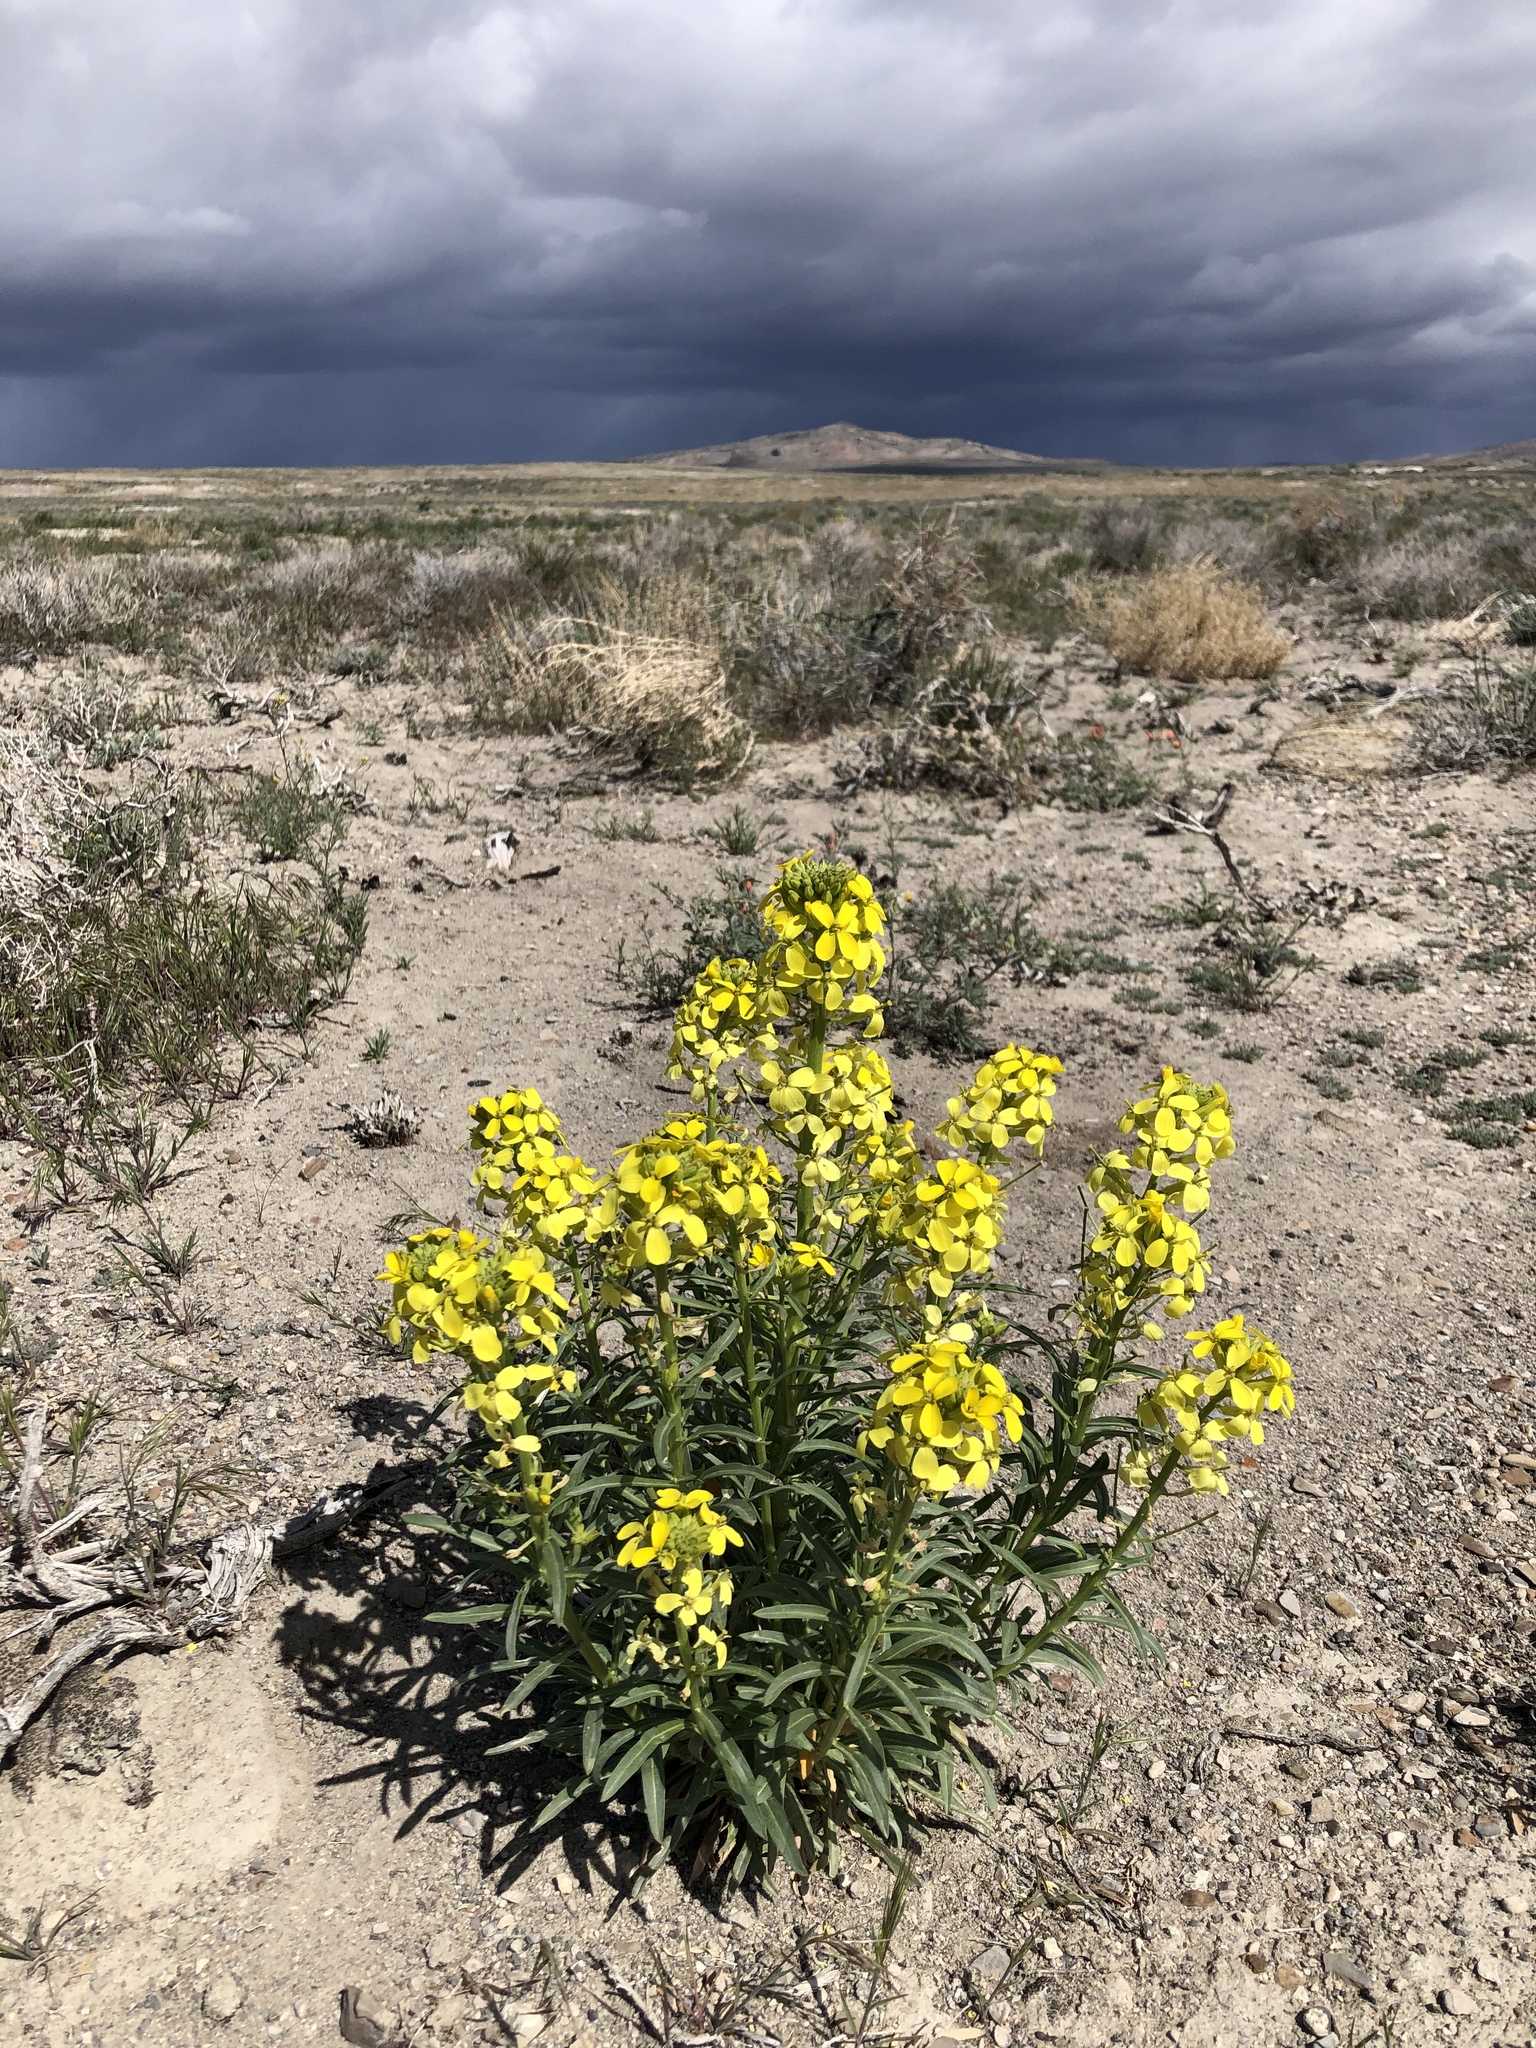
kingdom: Plantae
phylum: Tracheophyta
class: Magnoliopsida
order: Brassicales
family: Brassicaceae
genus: Erysimum
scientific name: Erysimum asperum
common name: Western wallflower
